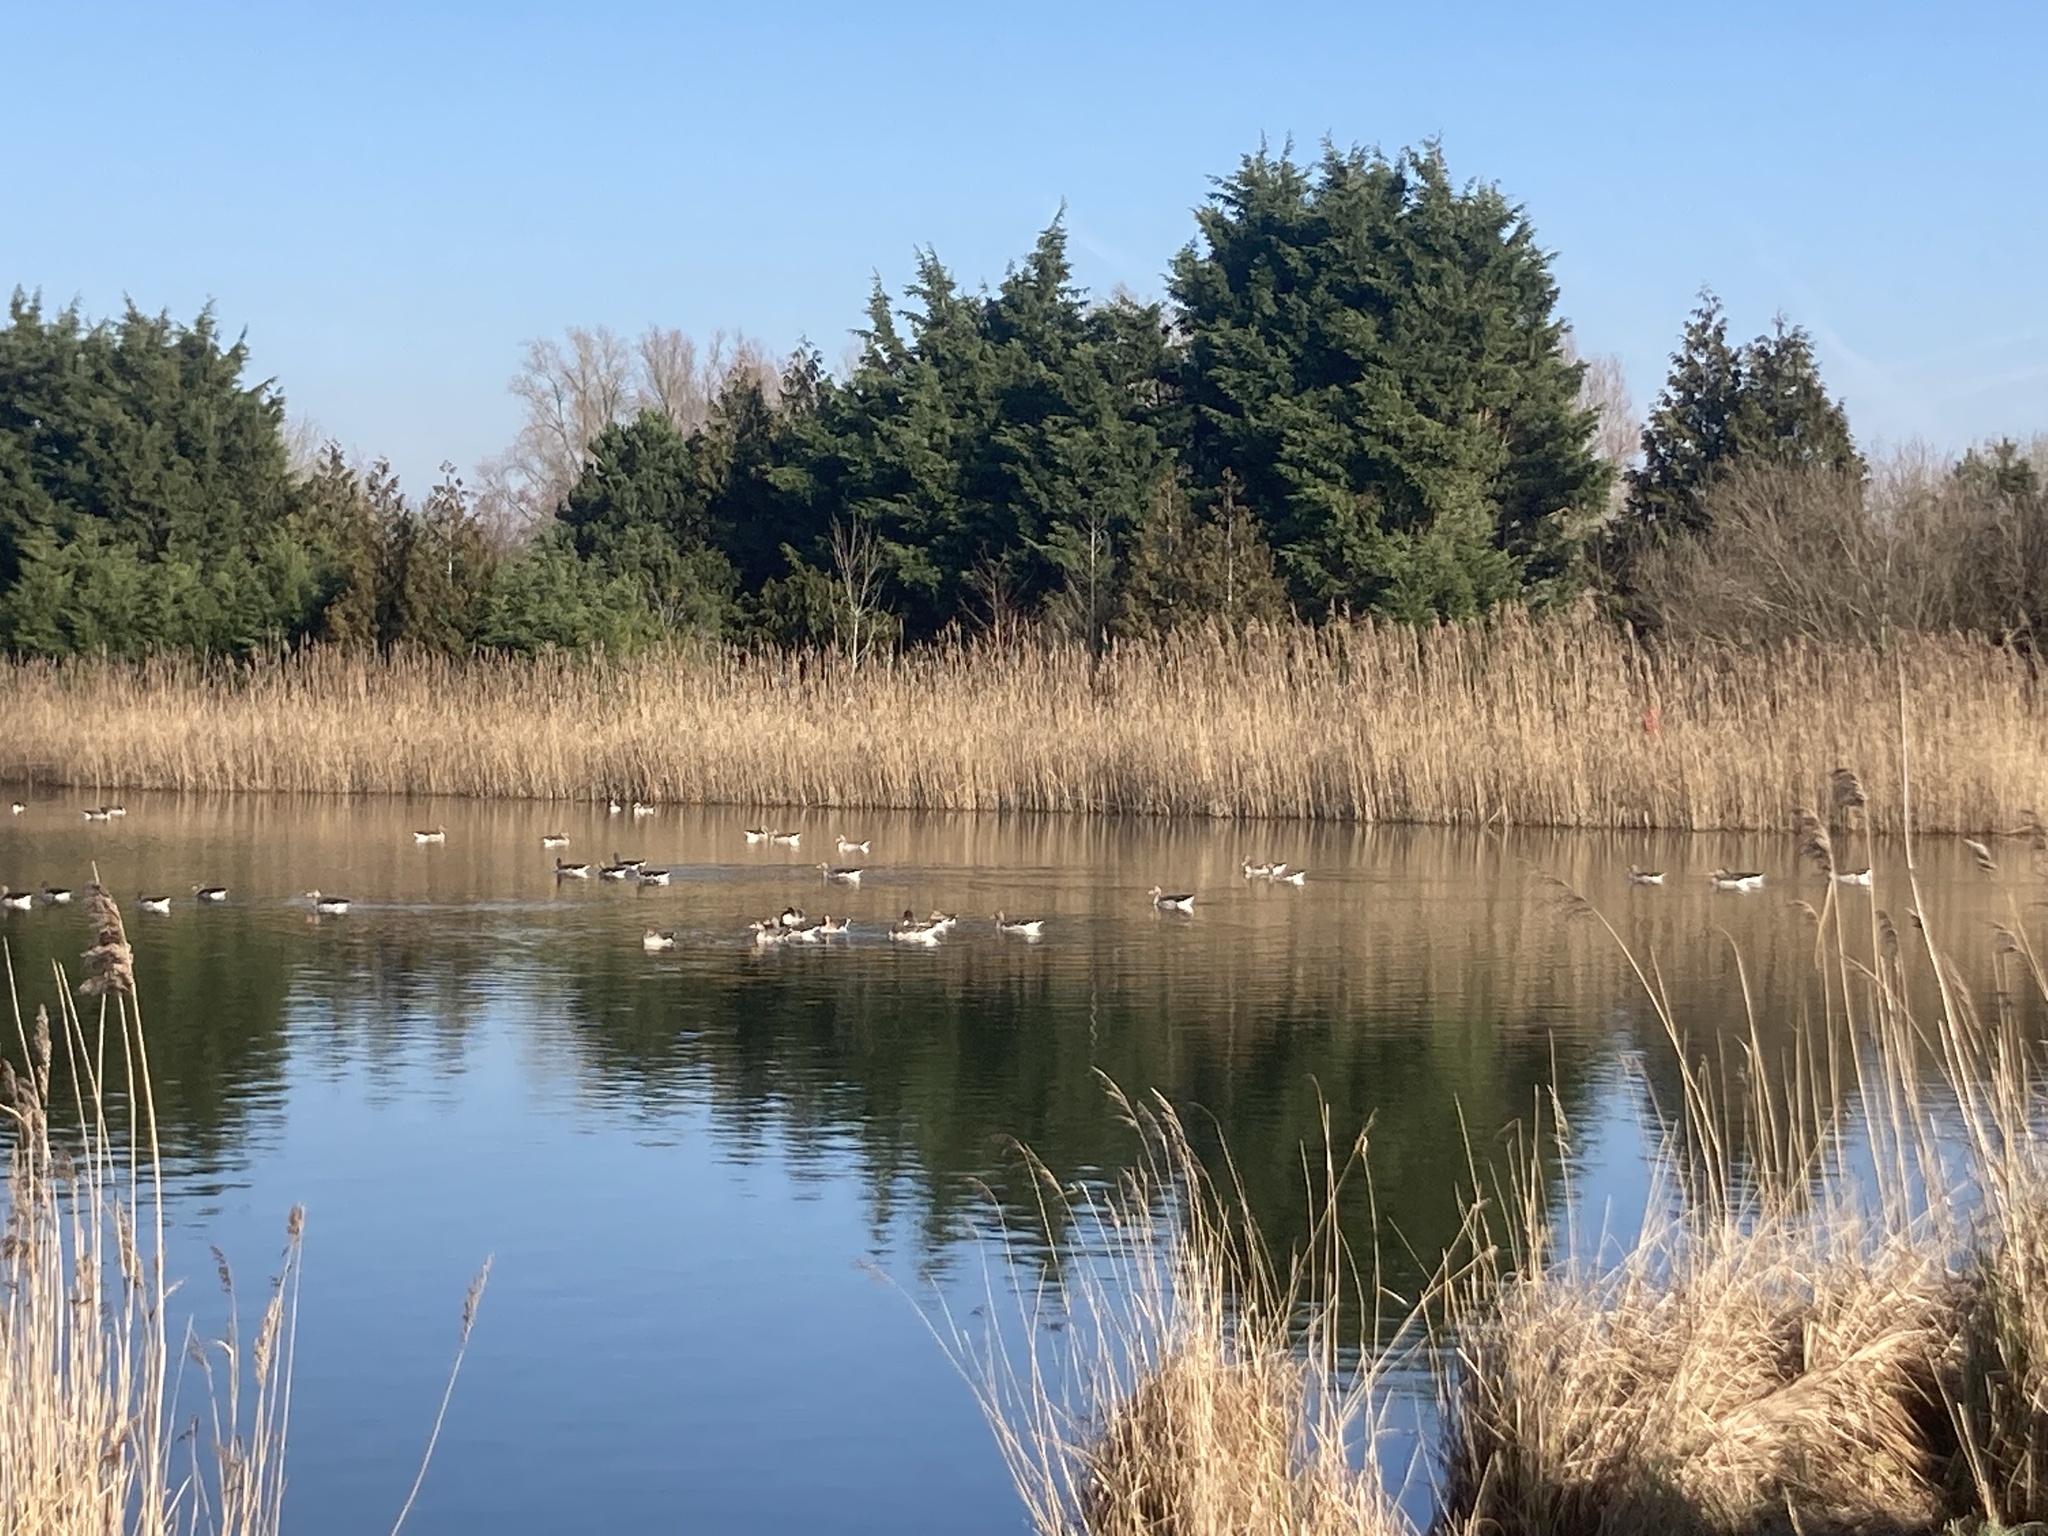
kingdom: Animalia
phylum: Chordata
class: Aves
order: Anseriformes
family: Anatidae
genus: Anser
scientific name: Anser anser
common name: Greylag goose
